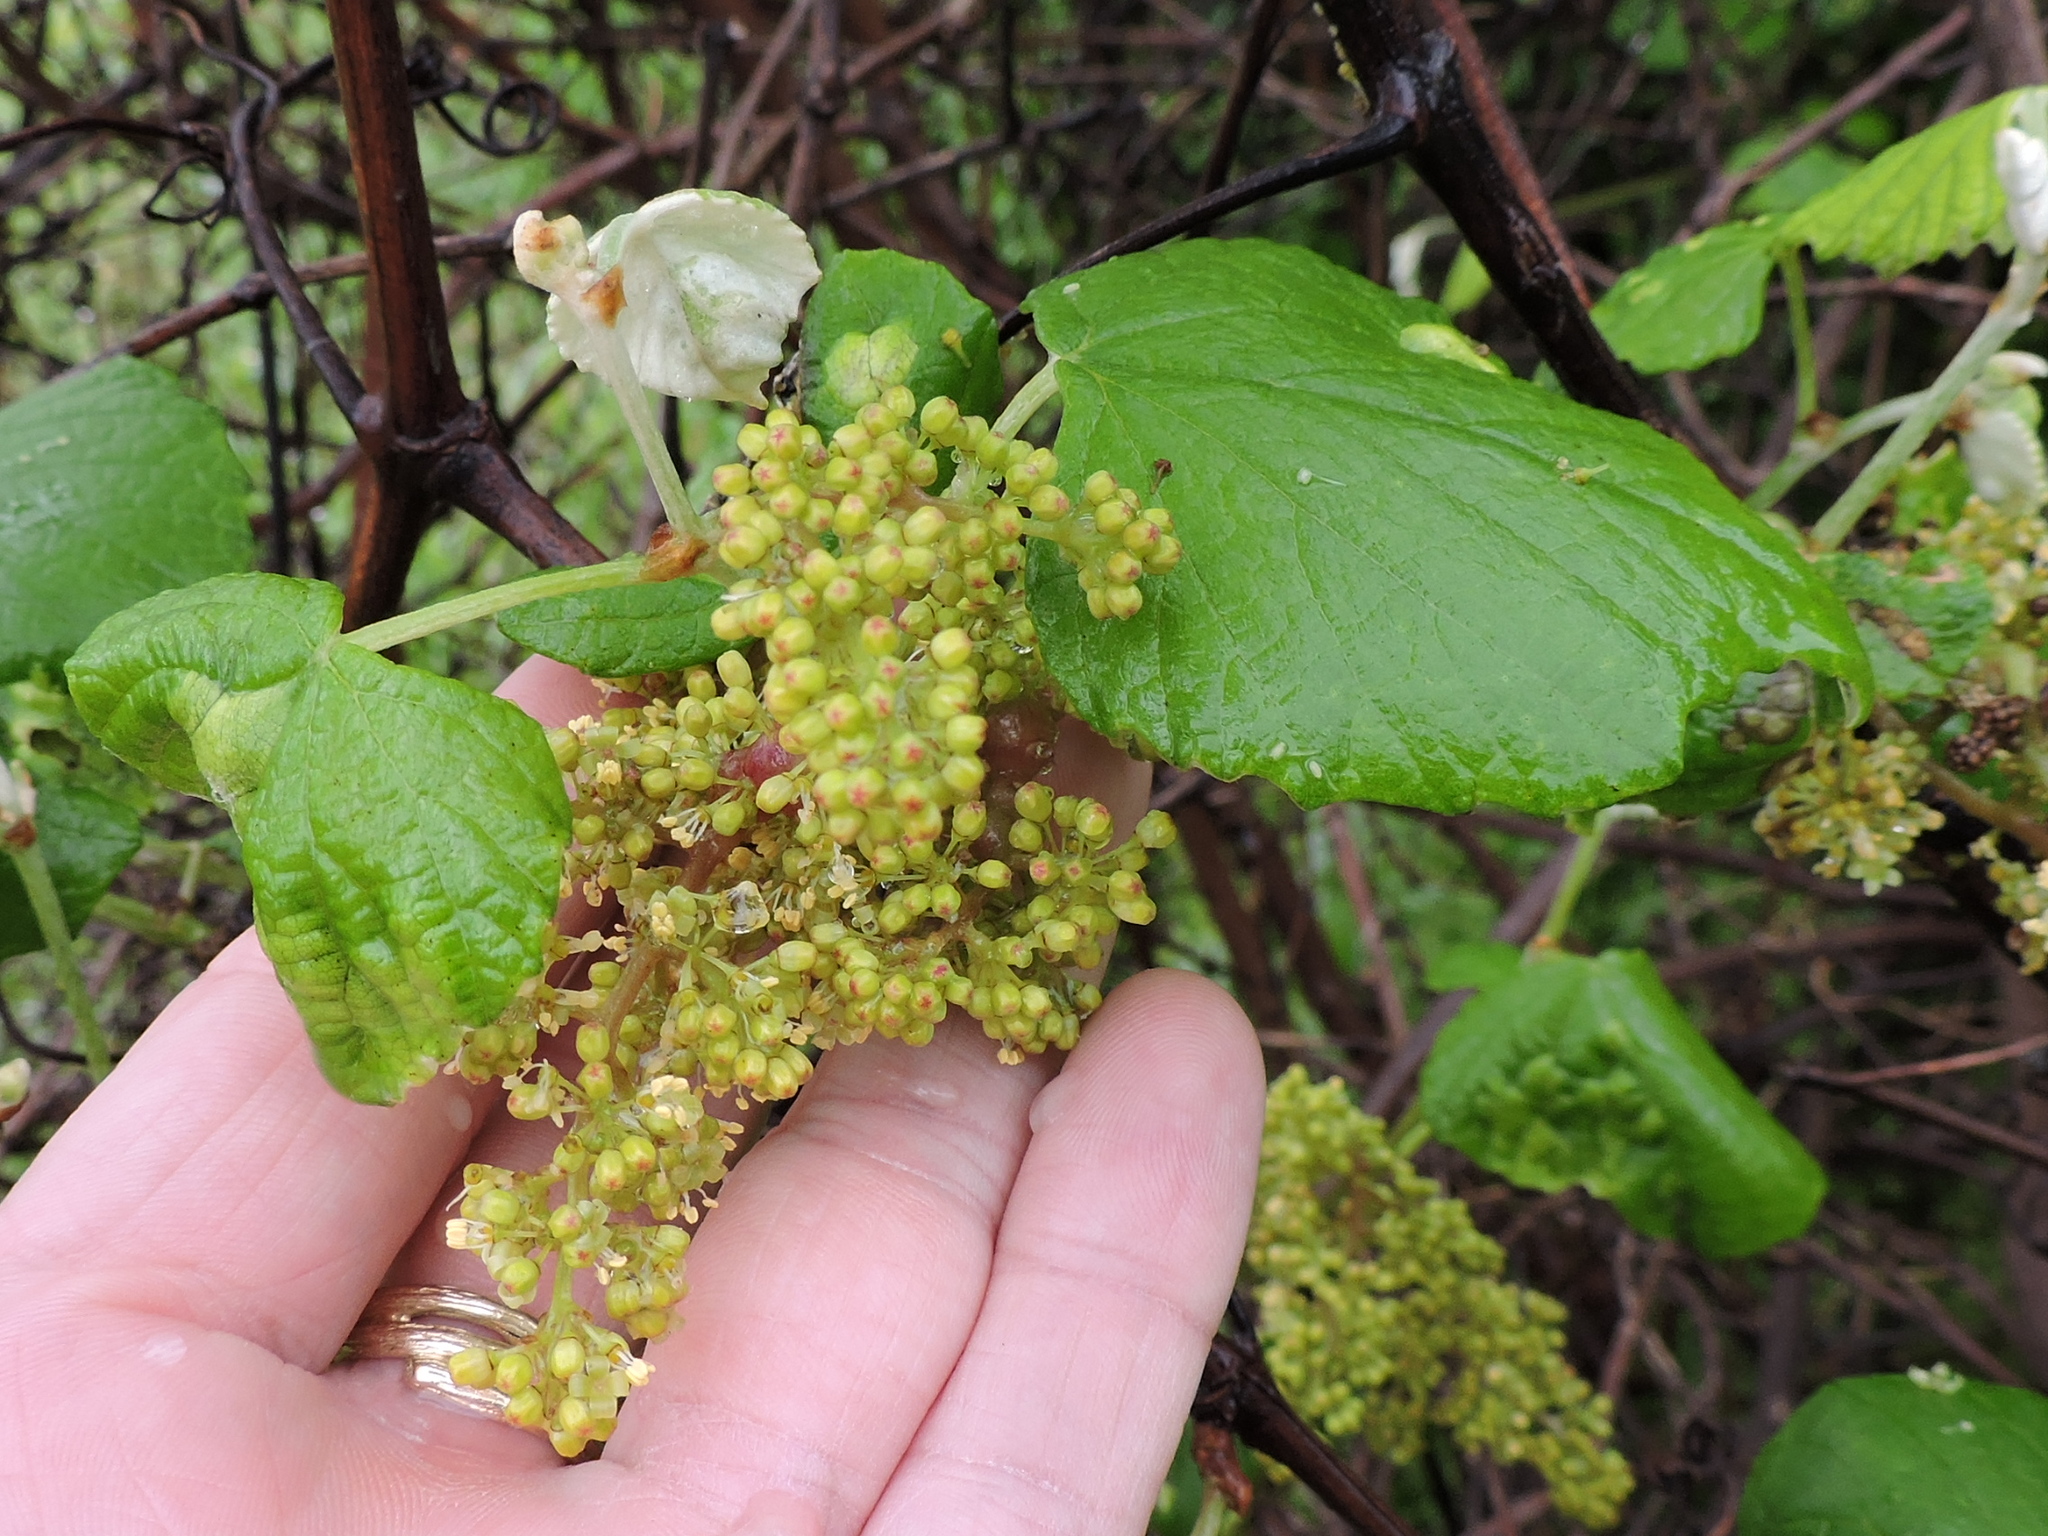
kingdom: Plantae
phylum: Tracheophyta
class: Magnoliopsida
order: Vitales
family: Vitaceae
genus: Vitis
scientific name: Vitis mustangensis
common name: Mustang grape
